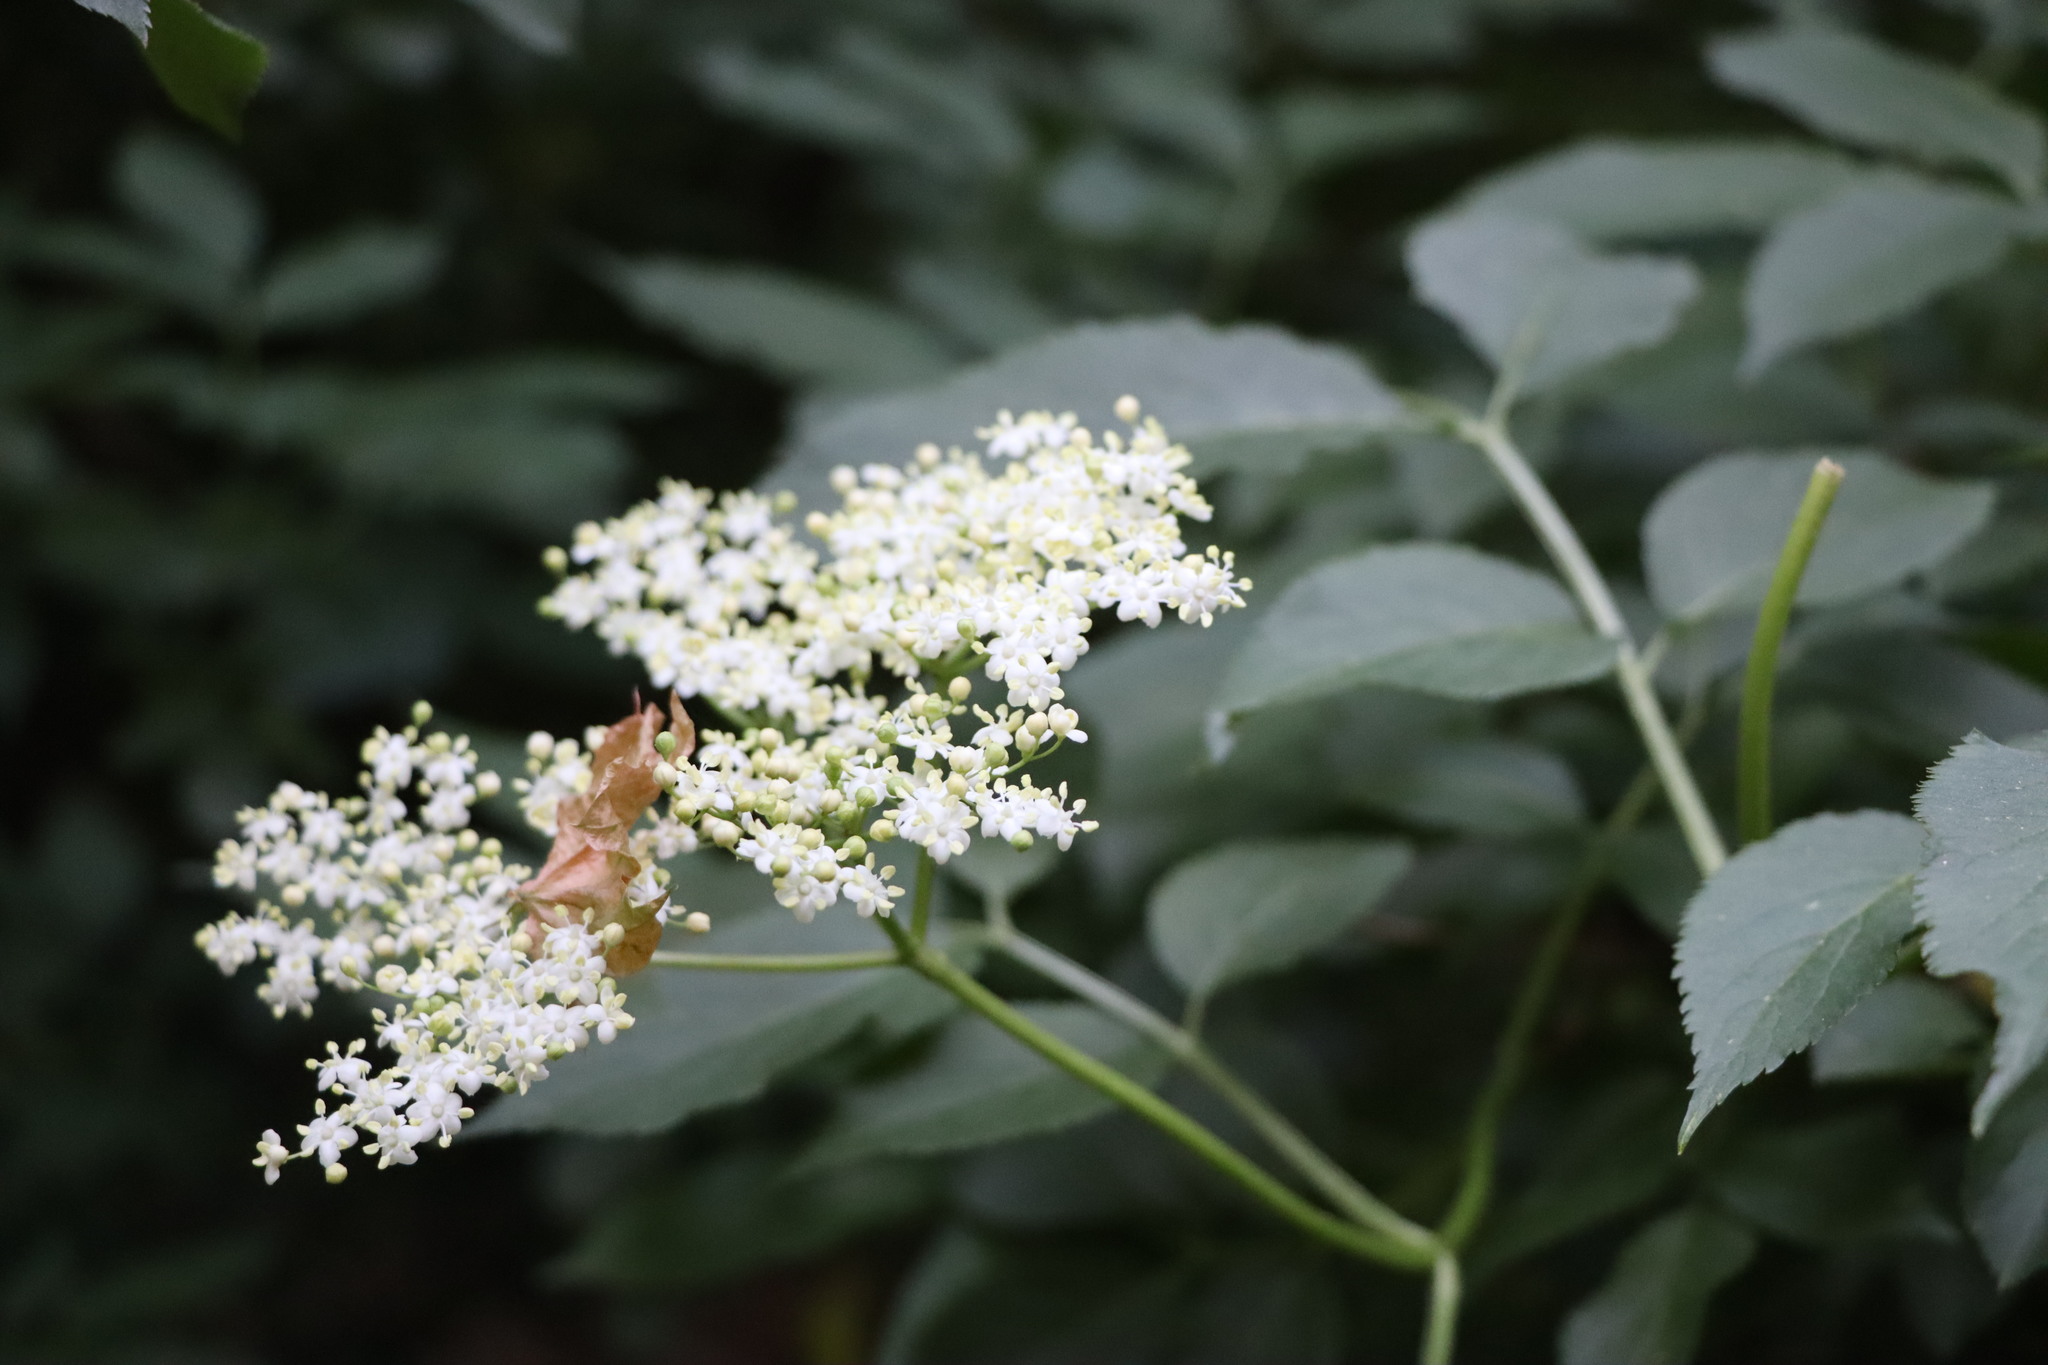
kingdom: Plantae
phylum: Tracheophyta
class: Magnoliopsida
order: Dipsacales
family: Viburnaceae
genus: Sambucus
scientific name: Sambucus nigra
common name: Elder
